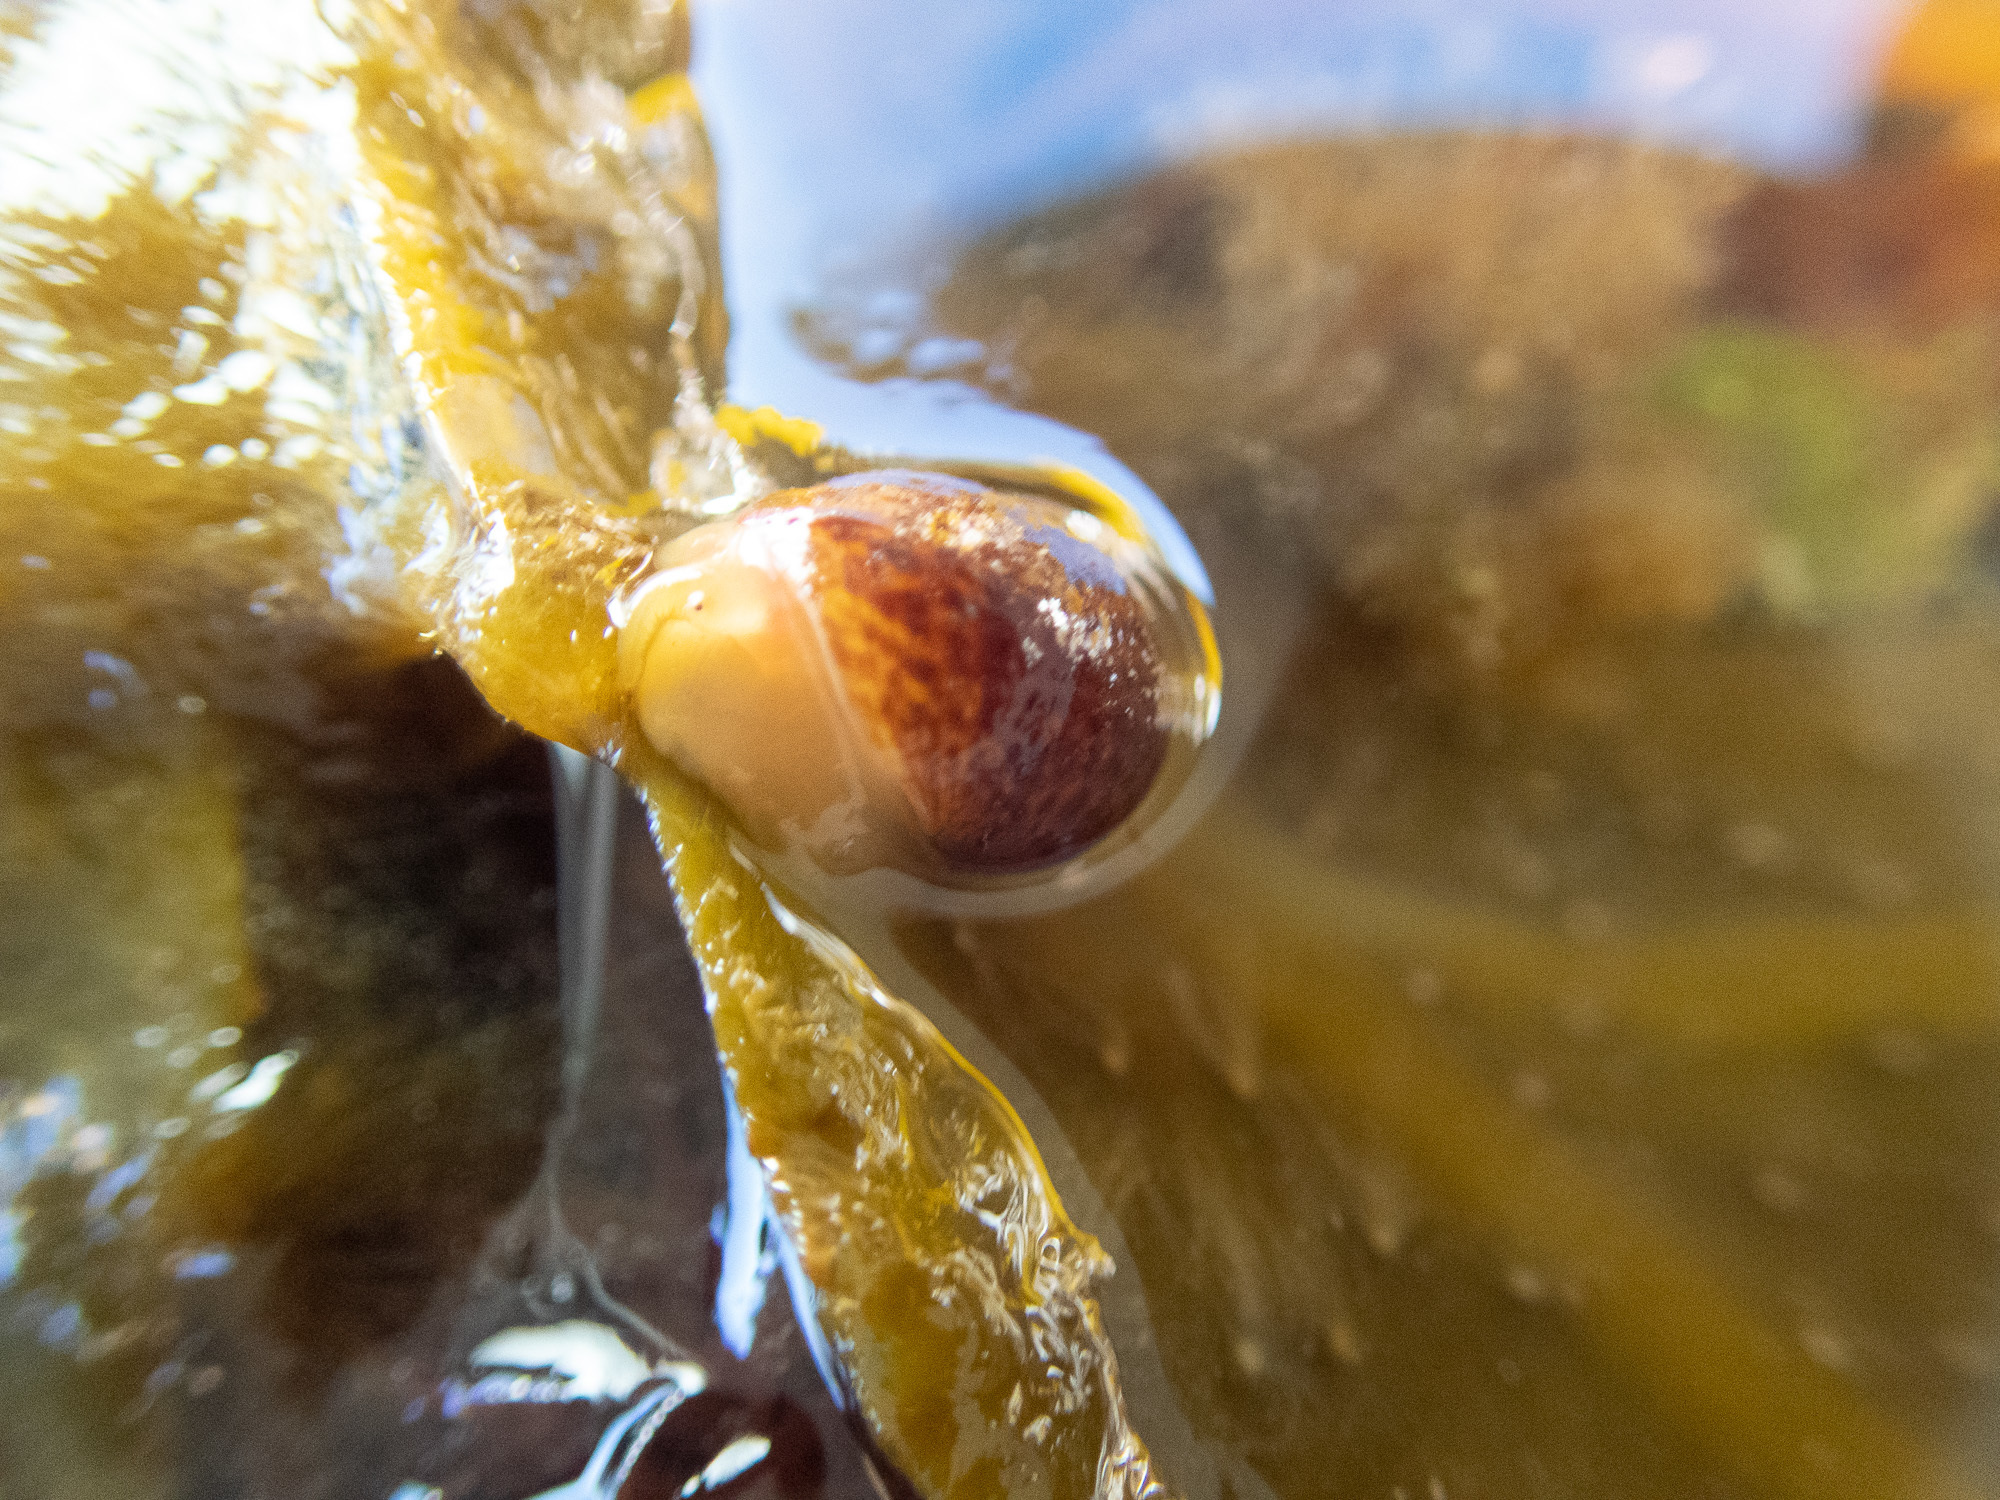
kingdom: Animalia
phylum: Mollusca
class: Gastropoda
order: Littorinimorpha
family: Littorinidae
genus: Littorina
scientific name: Littorina fabalis
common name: Flat periwinkle
